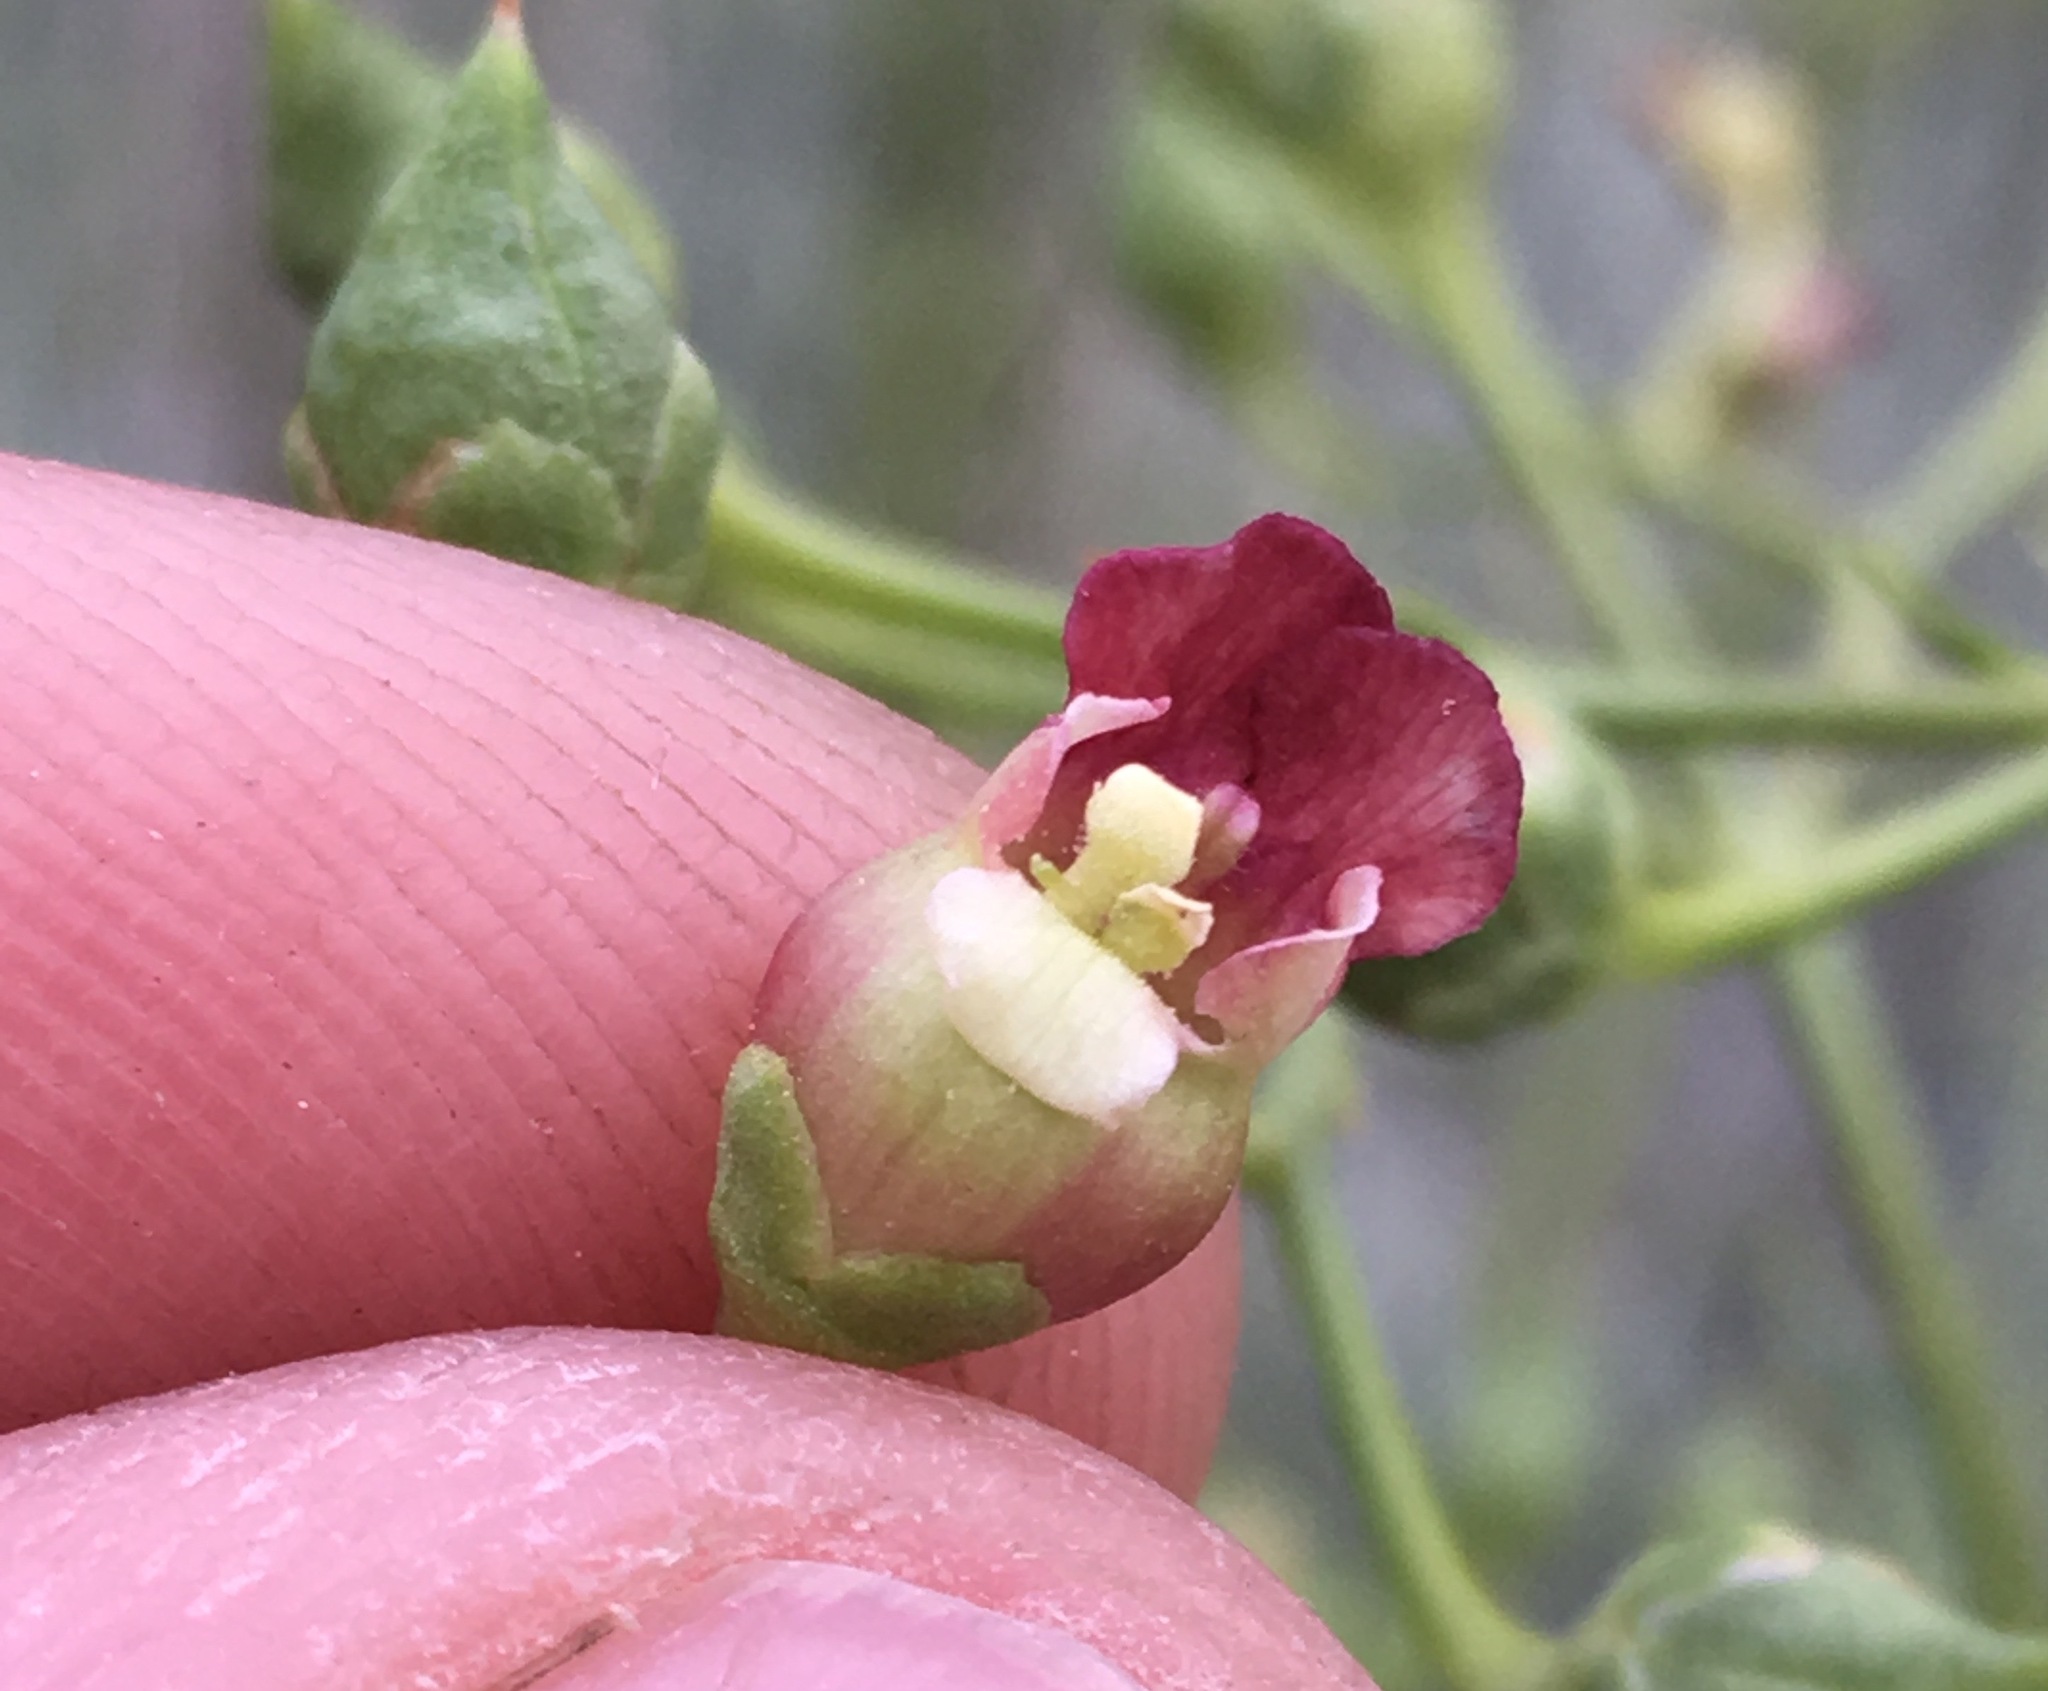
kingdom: Plantae
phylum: Tracheophyta
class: Magnoliopsida
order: Lamiales
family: Scrophulariaceae
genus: Scrophularia
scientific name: Scrophularia desertorum
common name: Desert figwort
